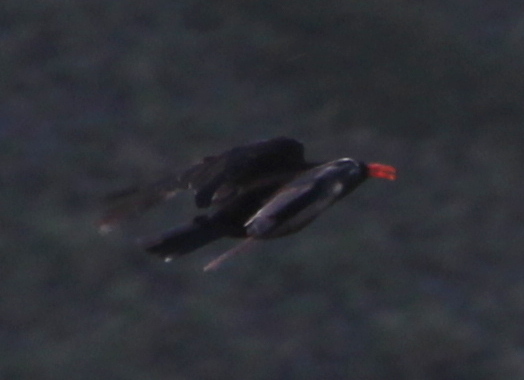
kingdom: Animalia
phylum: Chordata
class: Aves
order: Passeriformes
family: Corvidae
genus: Pyrrhocorax
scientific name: Pyrrhocorax pyrrhocorax
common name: Red-billed chough
